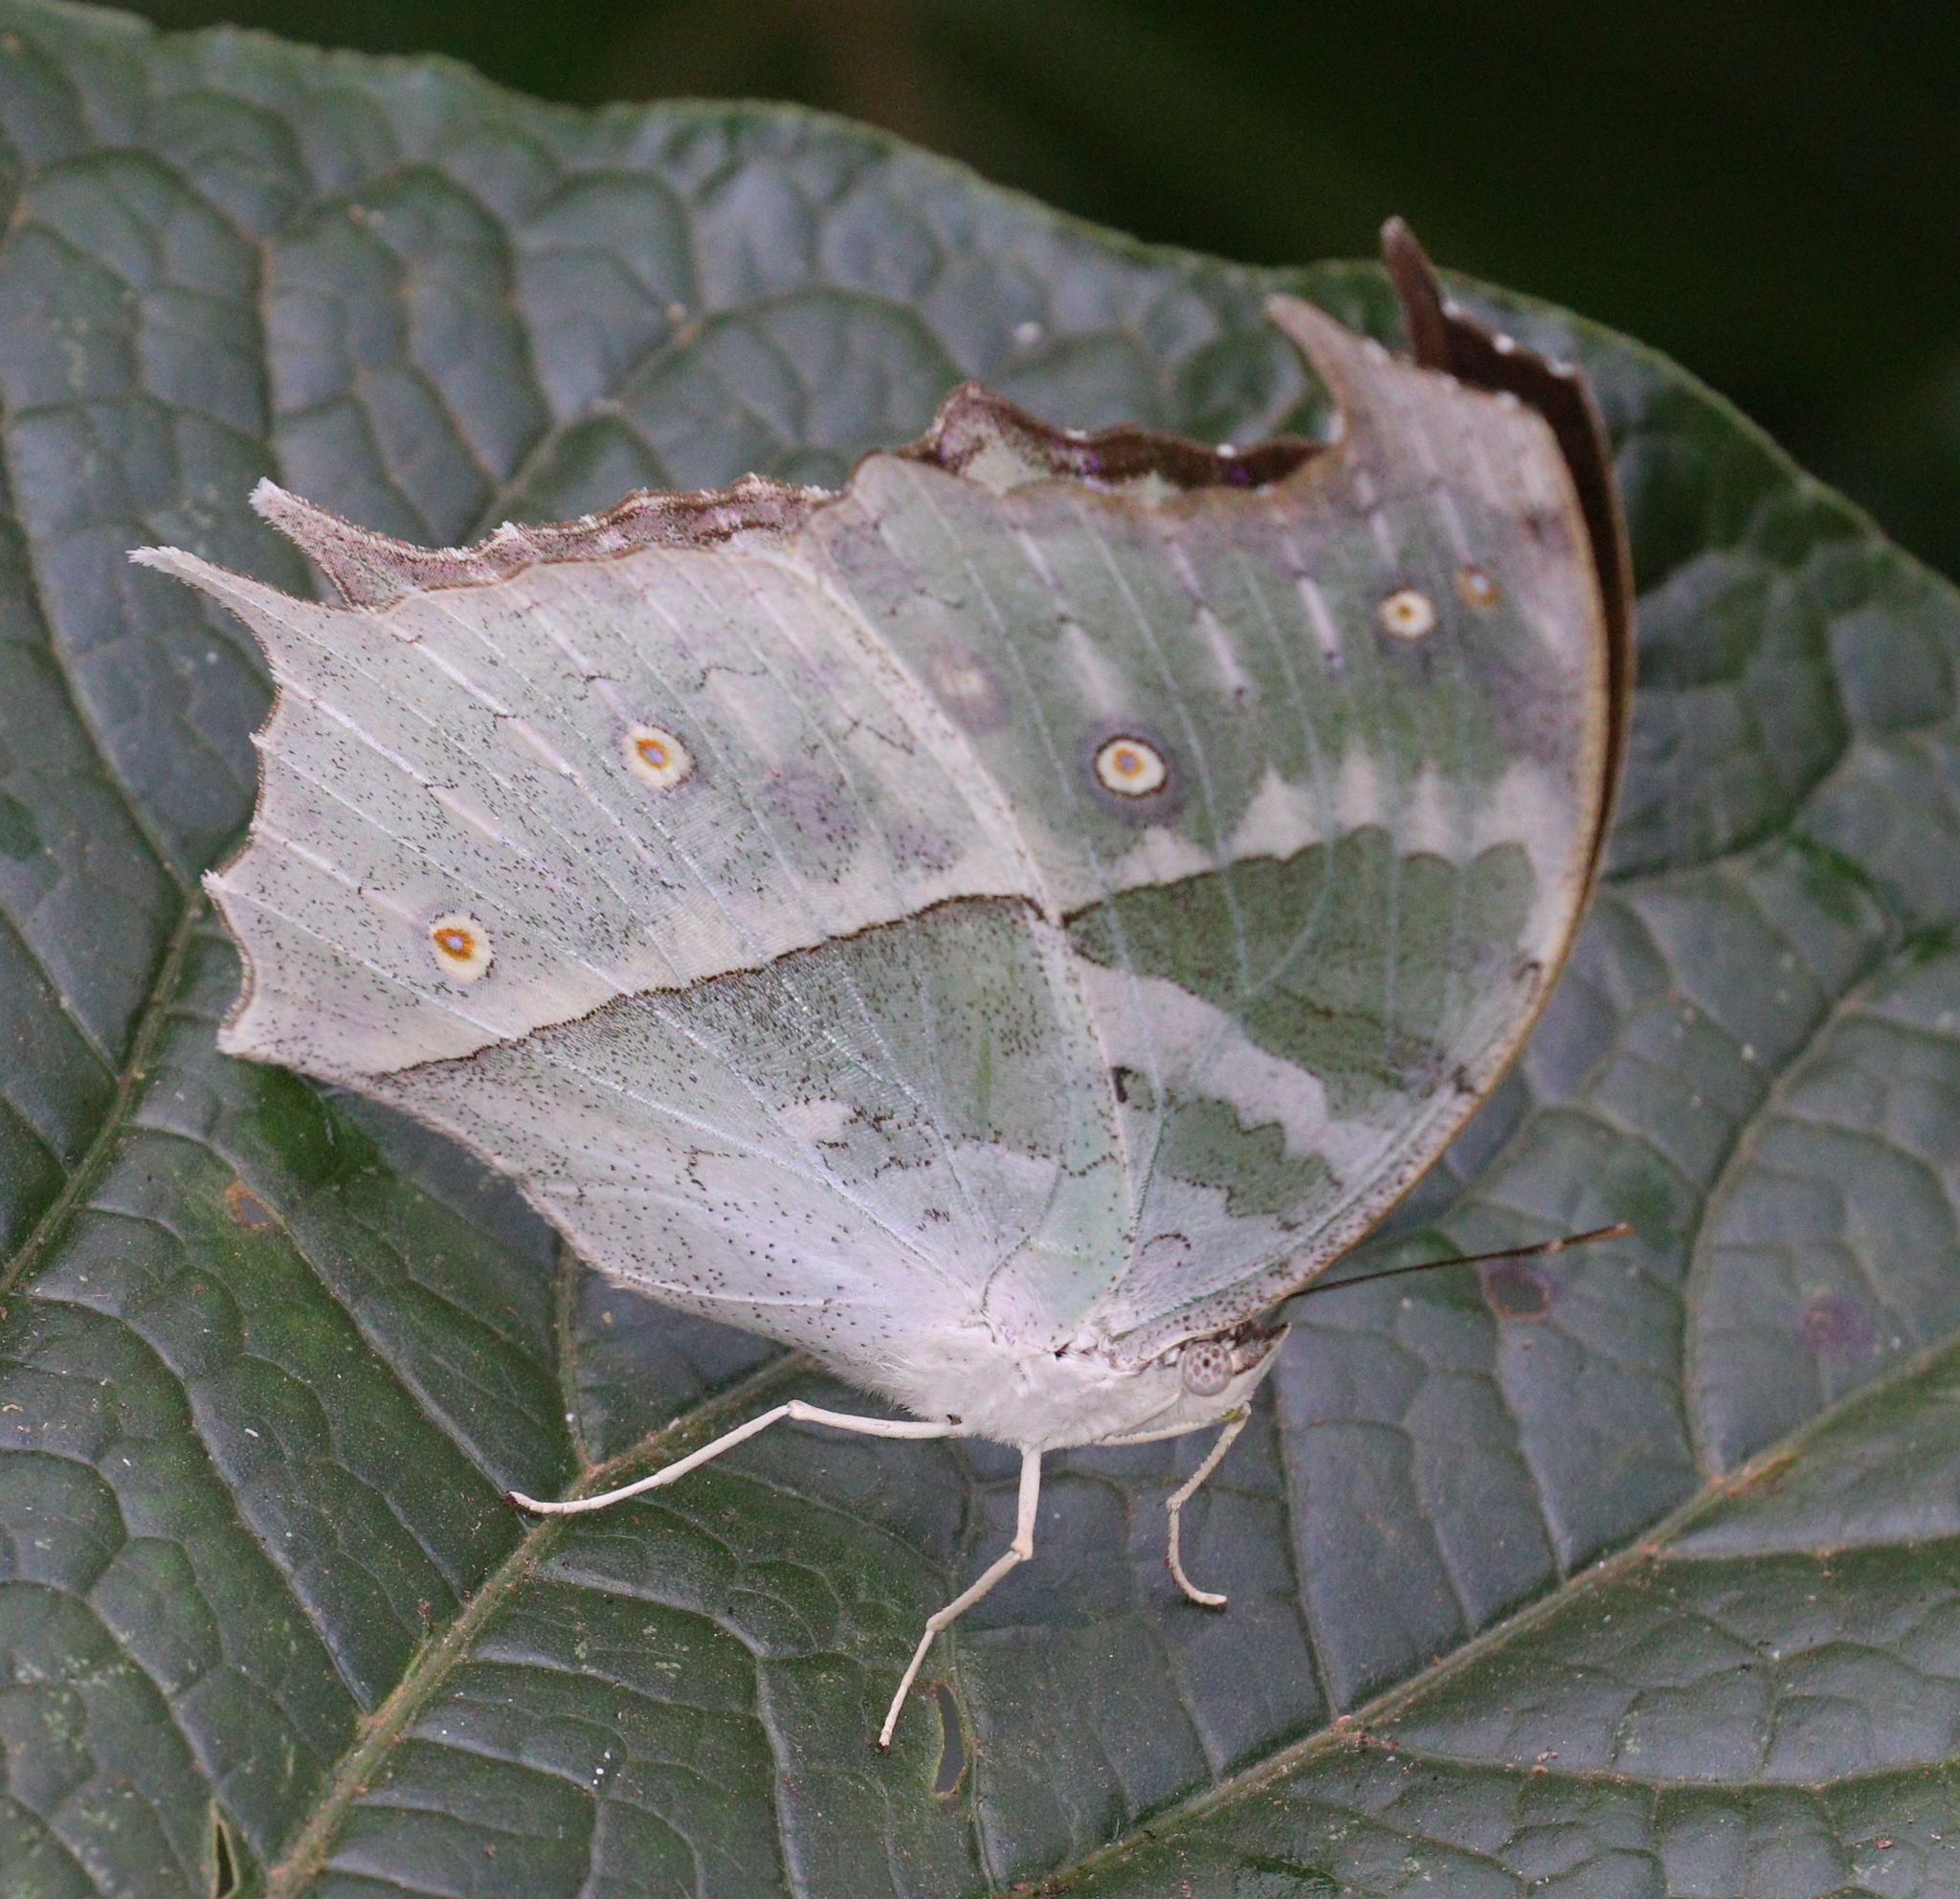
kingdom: Animalia
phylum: Arthropoda
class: Insecta
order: Lepidoptera
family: Nymphalidae
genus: Salamis
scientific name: Salamis Protogoniomorpha parhassus
